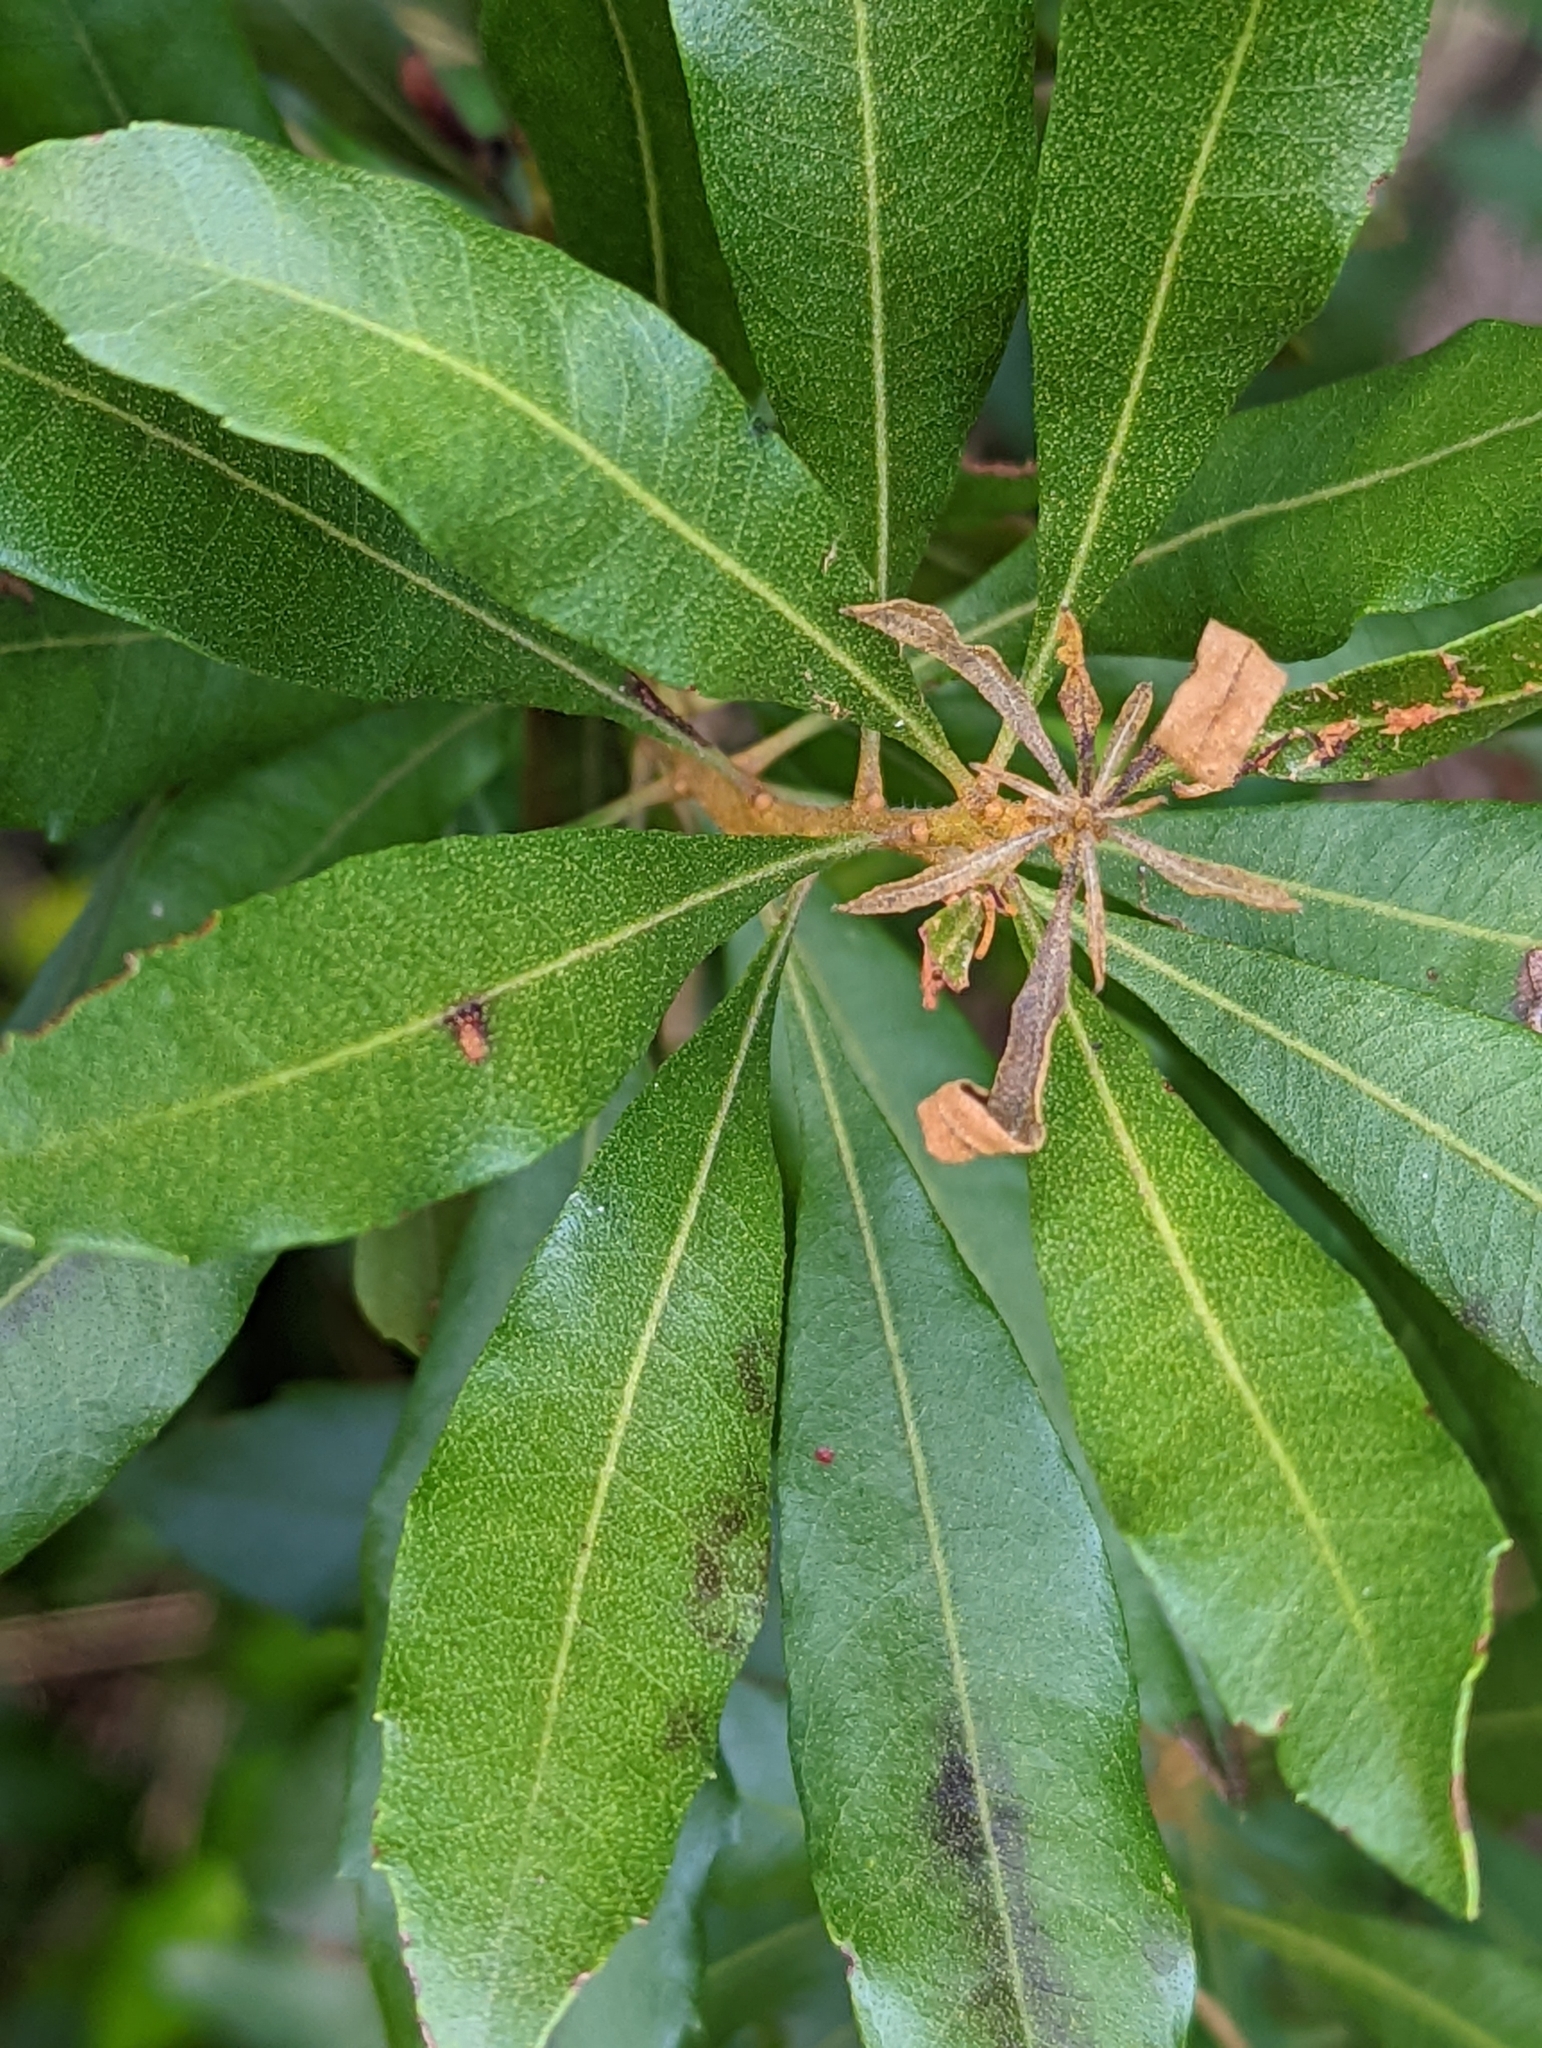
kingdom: Plantae
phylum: Tracheophyta
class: Magnoliopsida
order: Fagales
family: Myricaceae
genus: Morella
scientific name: Morella cerifera
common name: Wax myrtle
